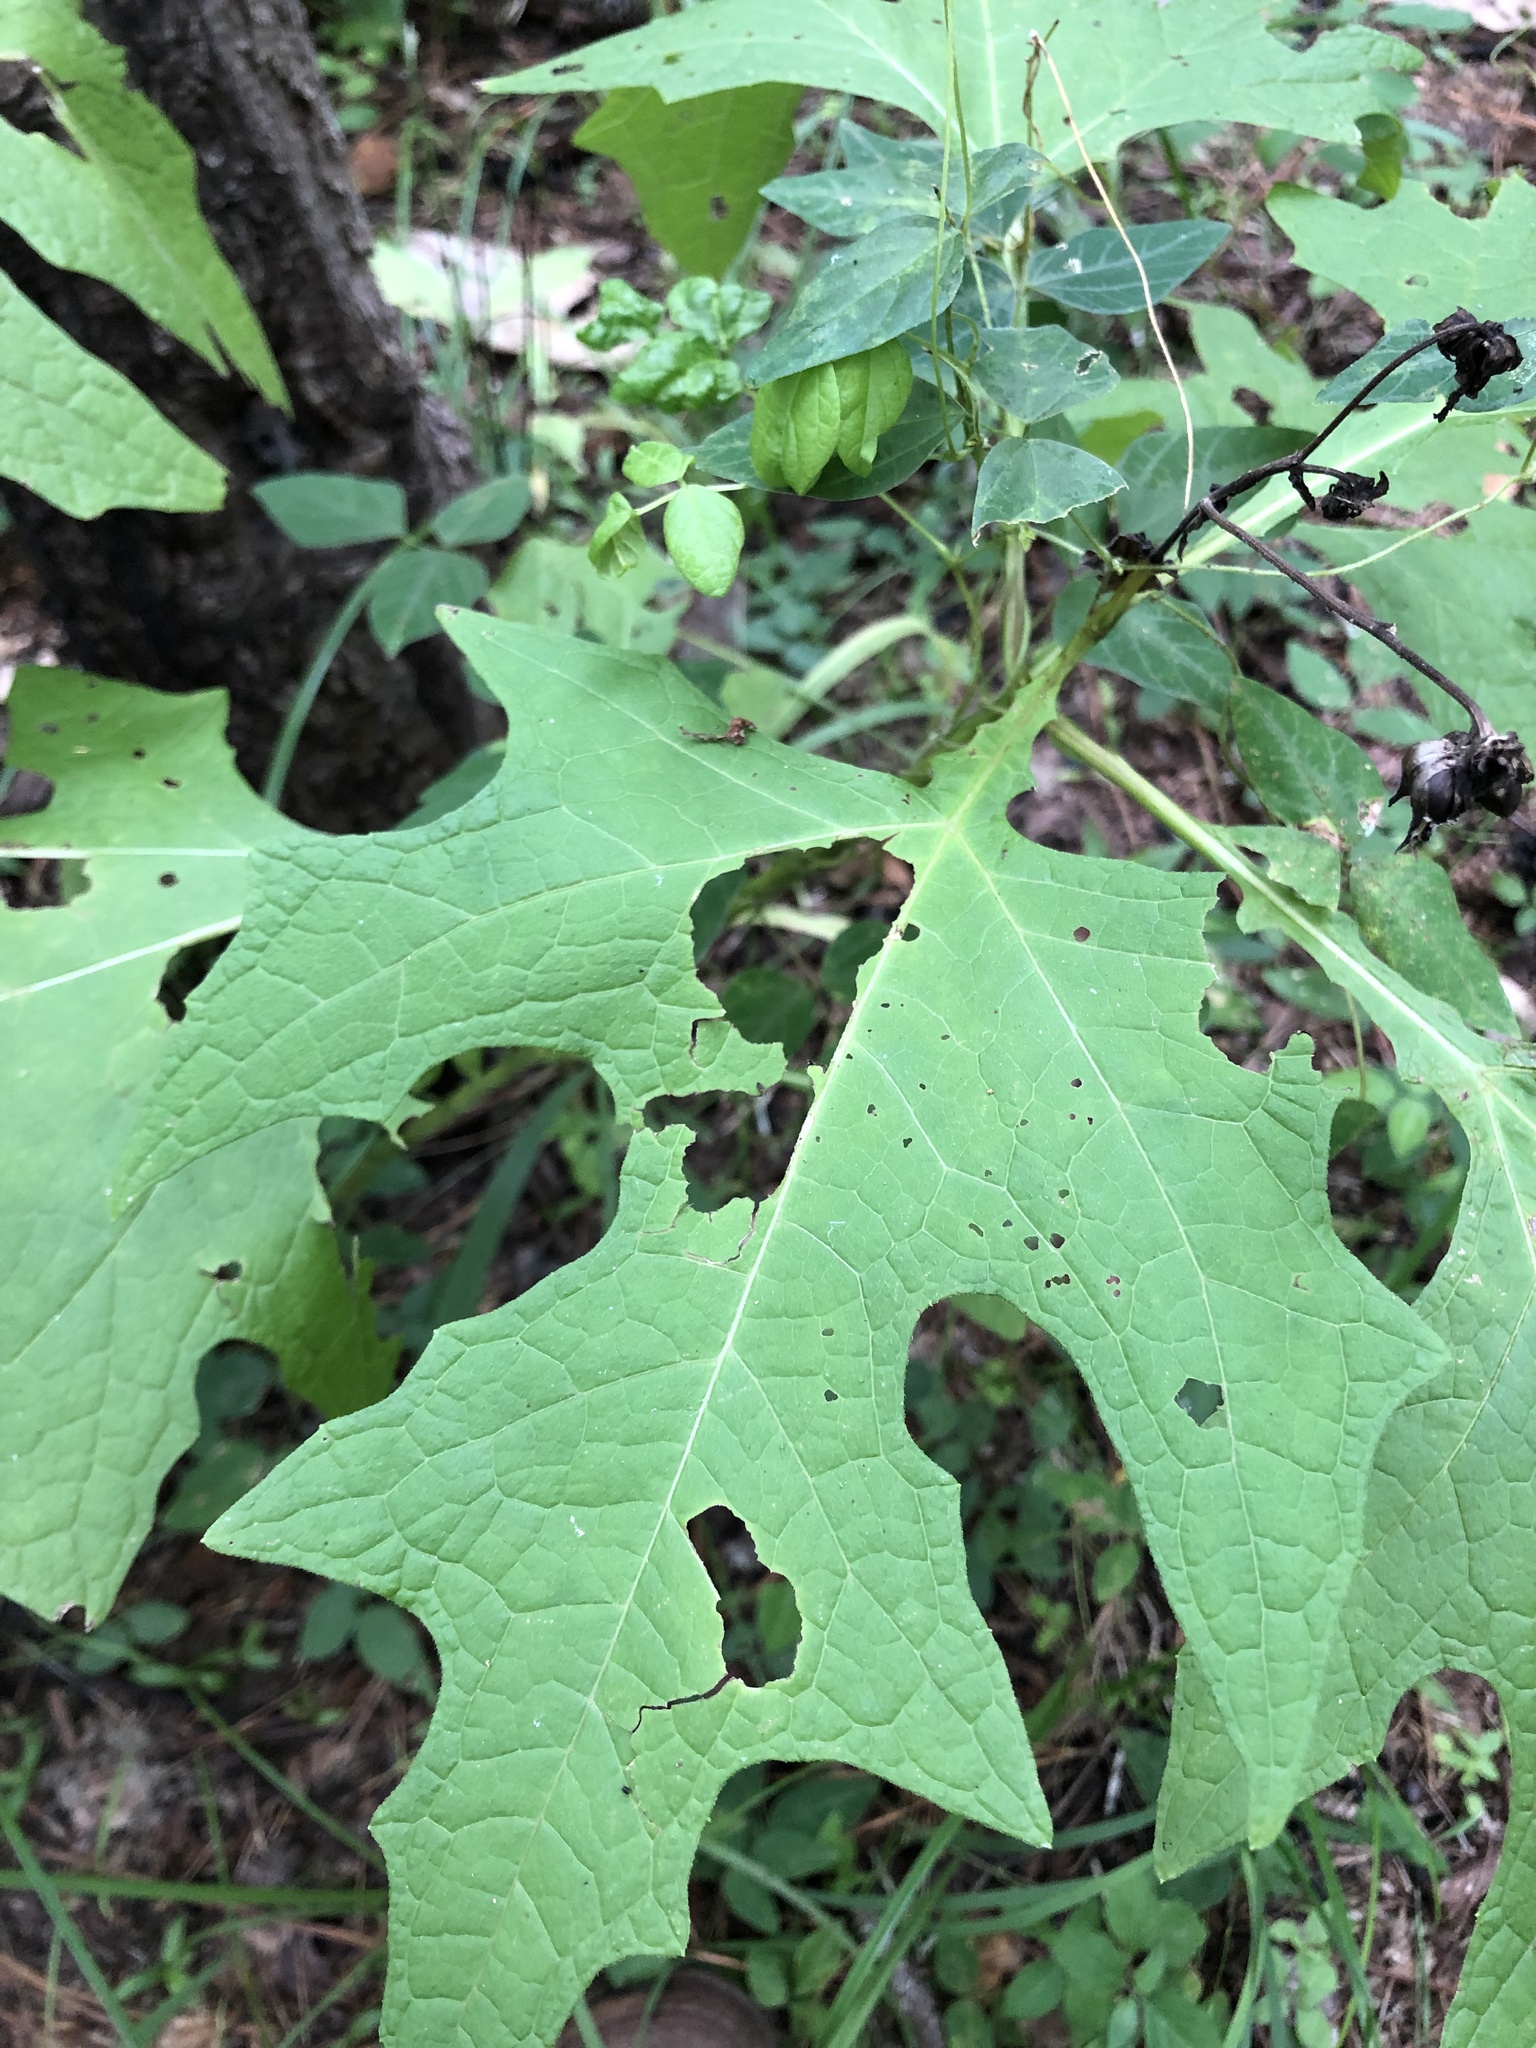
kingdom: Plantae
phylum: Tracheophyta
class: Magnoliopsida
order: Asterales
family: Asteraceae
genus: Smallanthus
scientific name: Smallanthus uvedalia
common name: Bear's-foot
